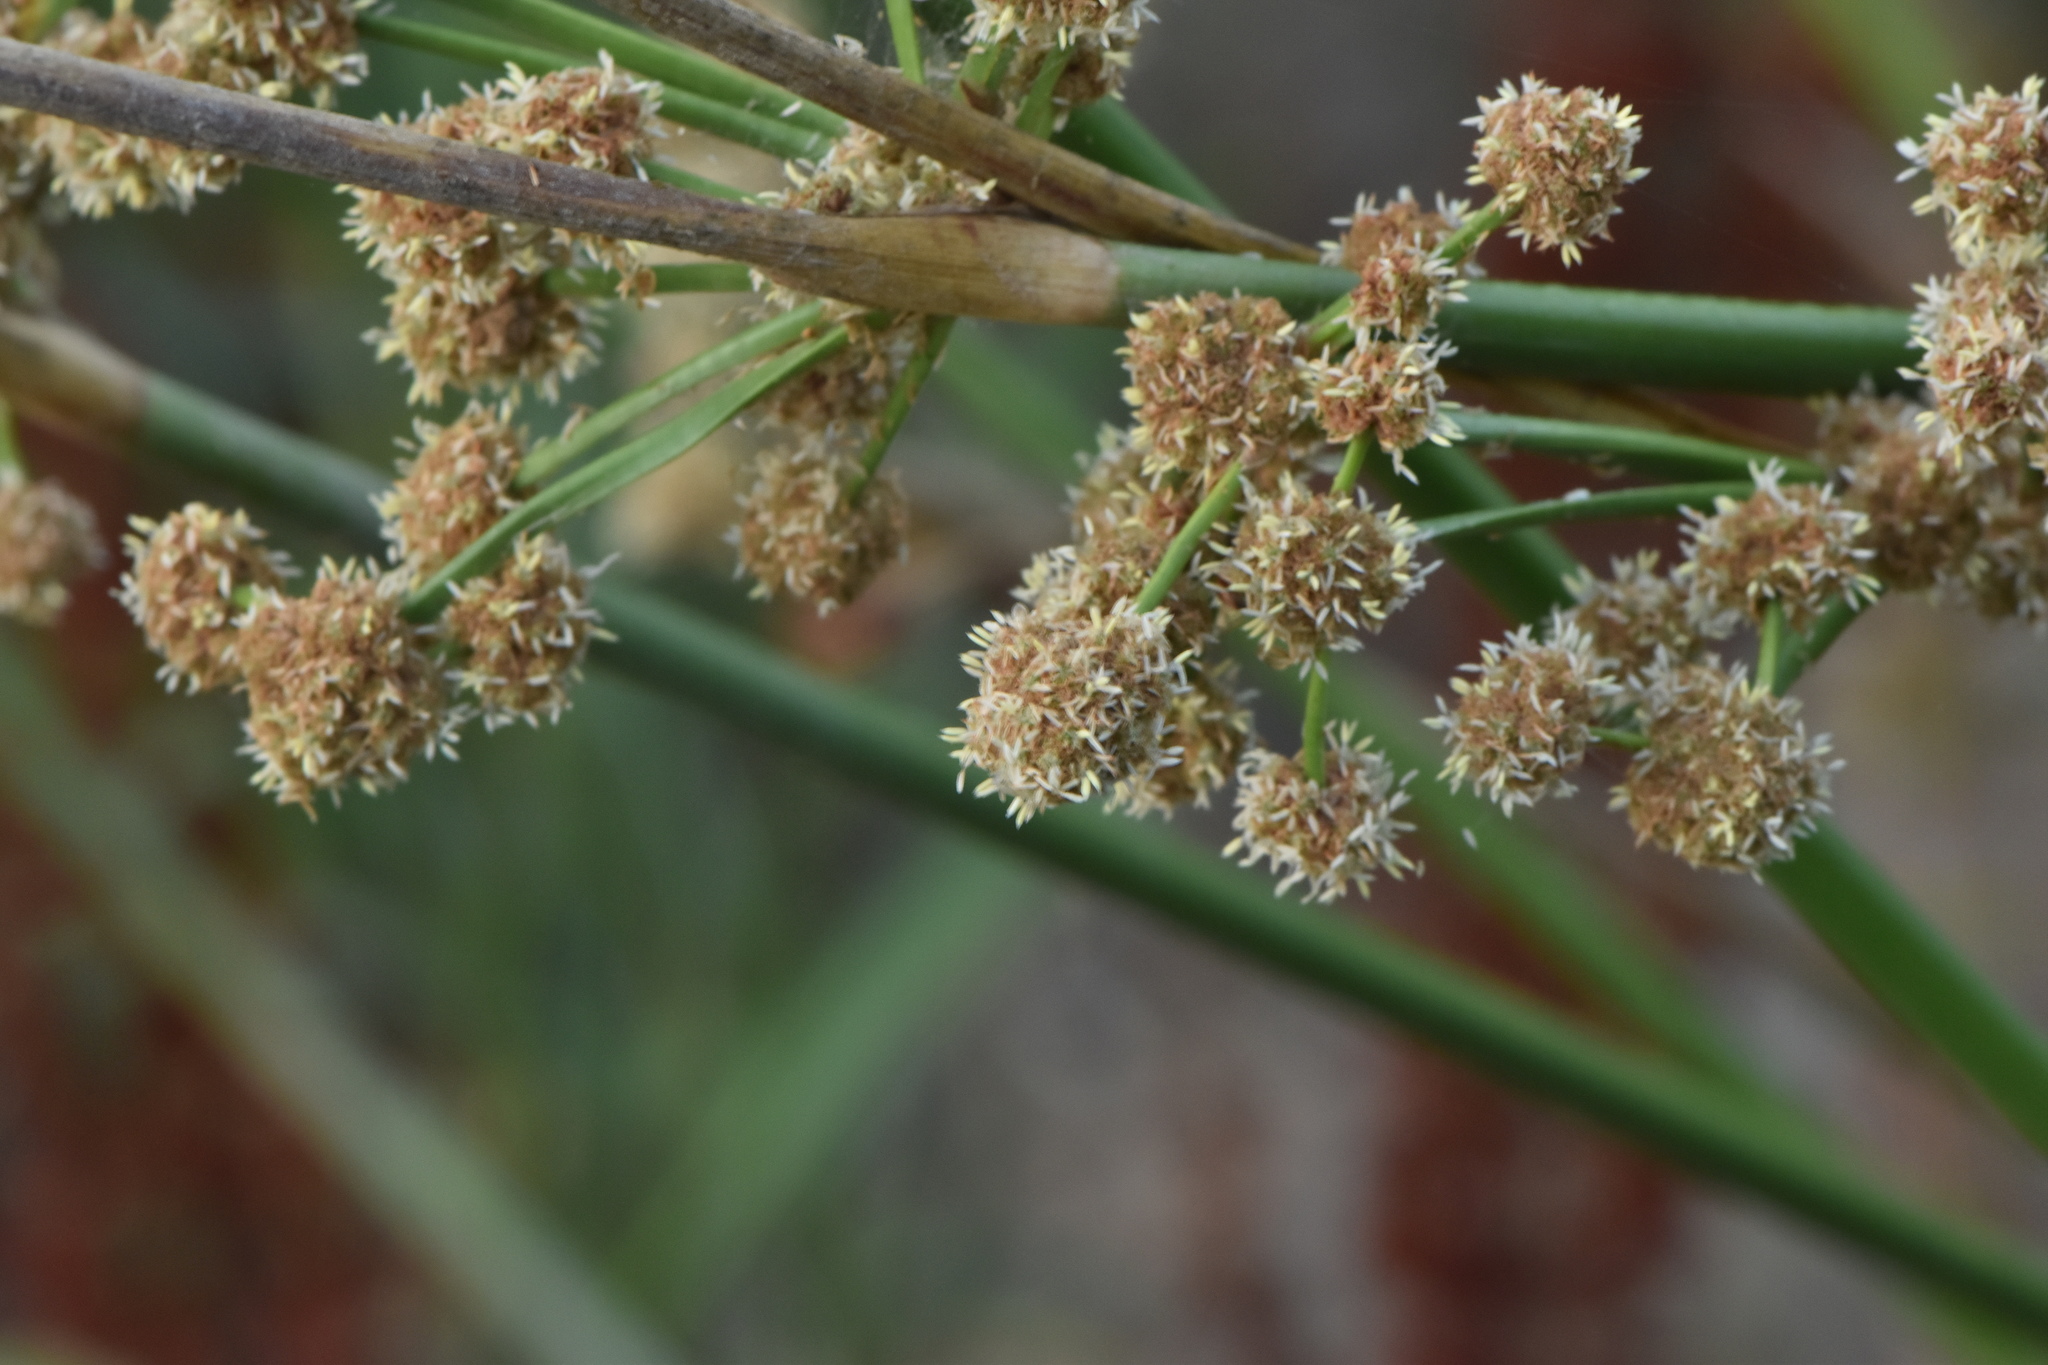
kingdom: Plantae
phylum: Tracheophyta
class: Liliopsida
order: Poales
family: Cyperaceae
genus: Scirpoides
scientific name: Scirpoides holoschoenus
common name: Round-headed club-rush
